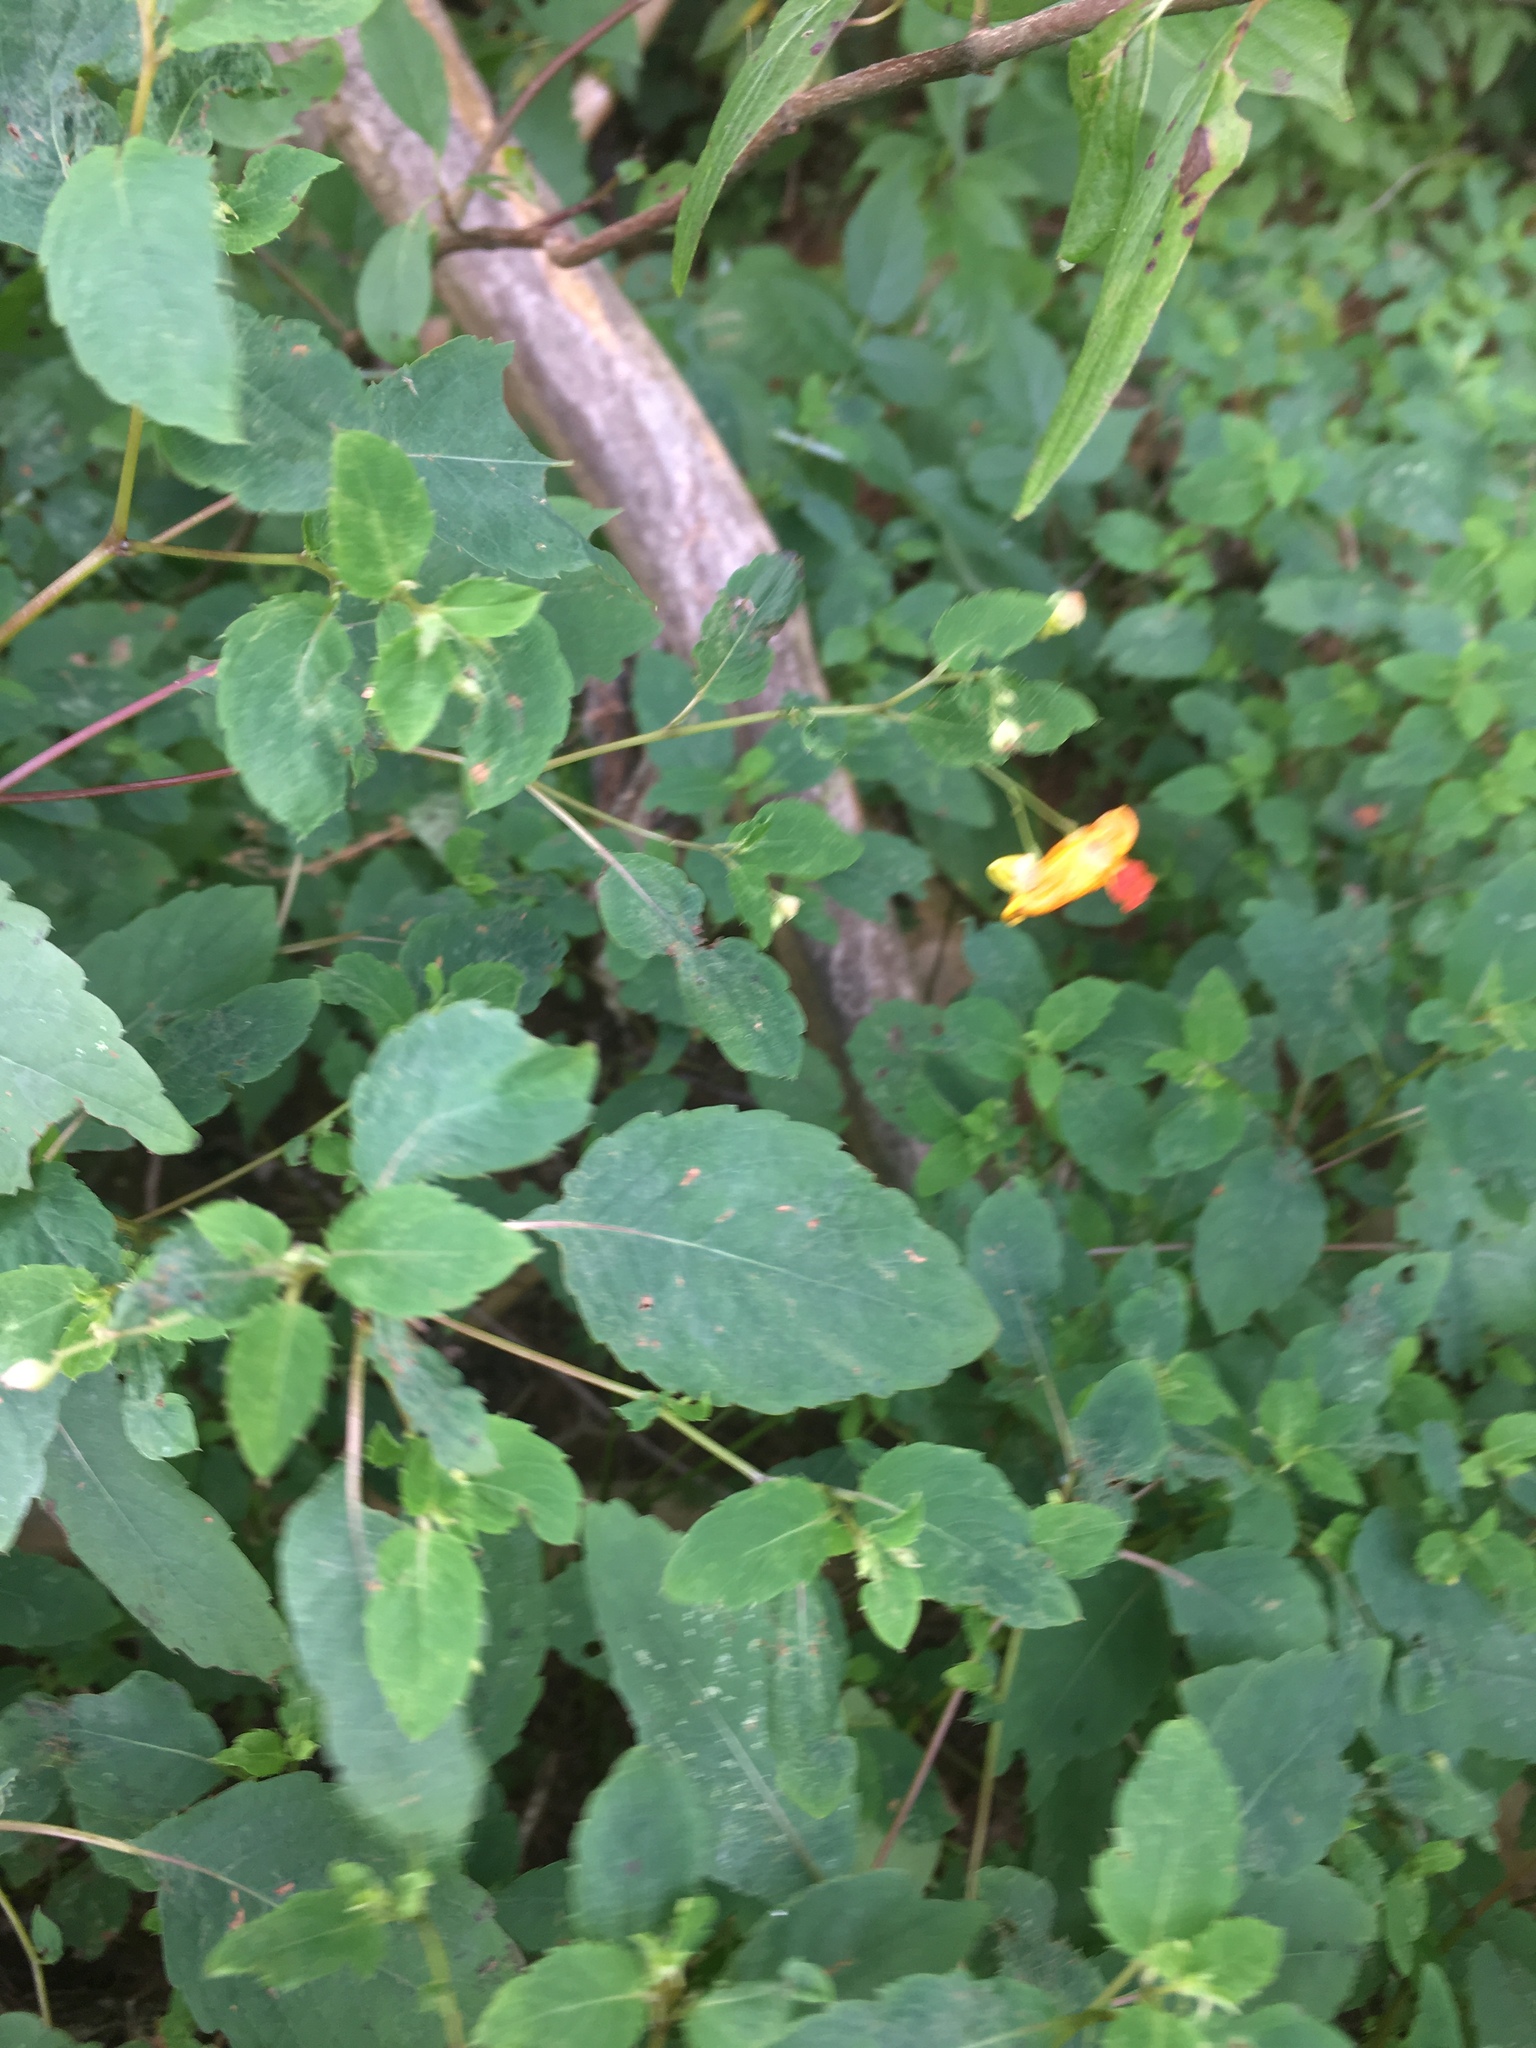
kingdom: Plantae
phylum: Tracheophyta
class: Magnoliopsida
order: Ericales
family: Balsaminaceae
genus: Impatiens
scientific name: Impatiens capensis
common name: Orange balsam
